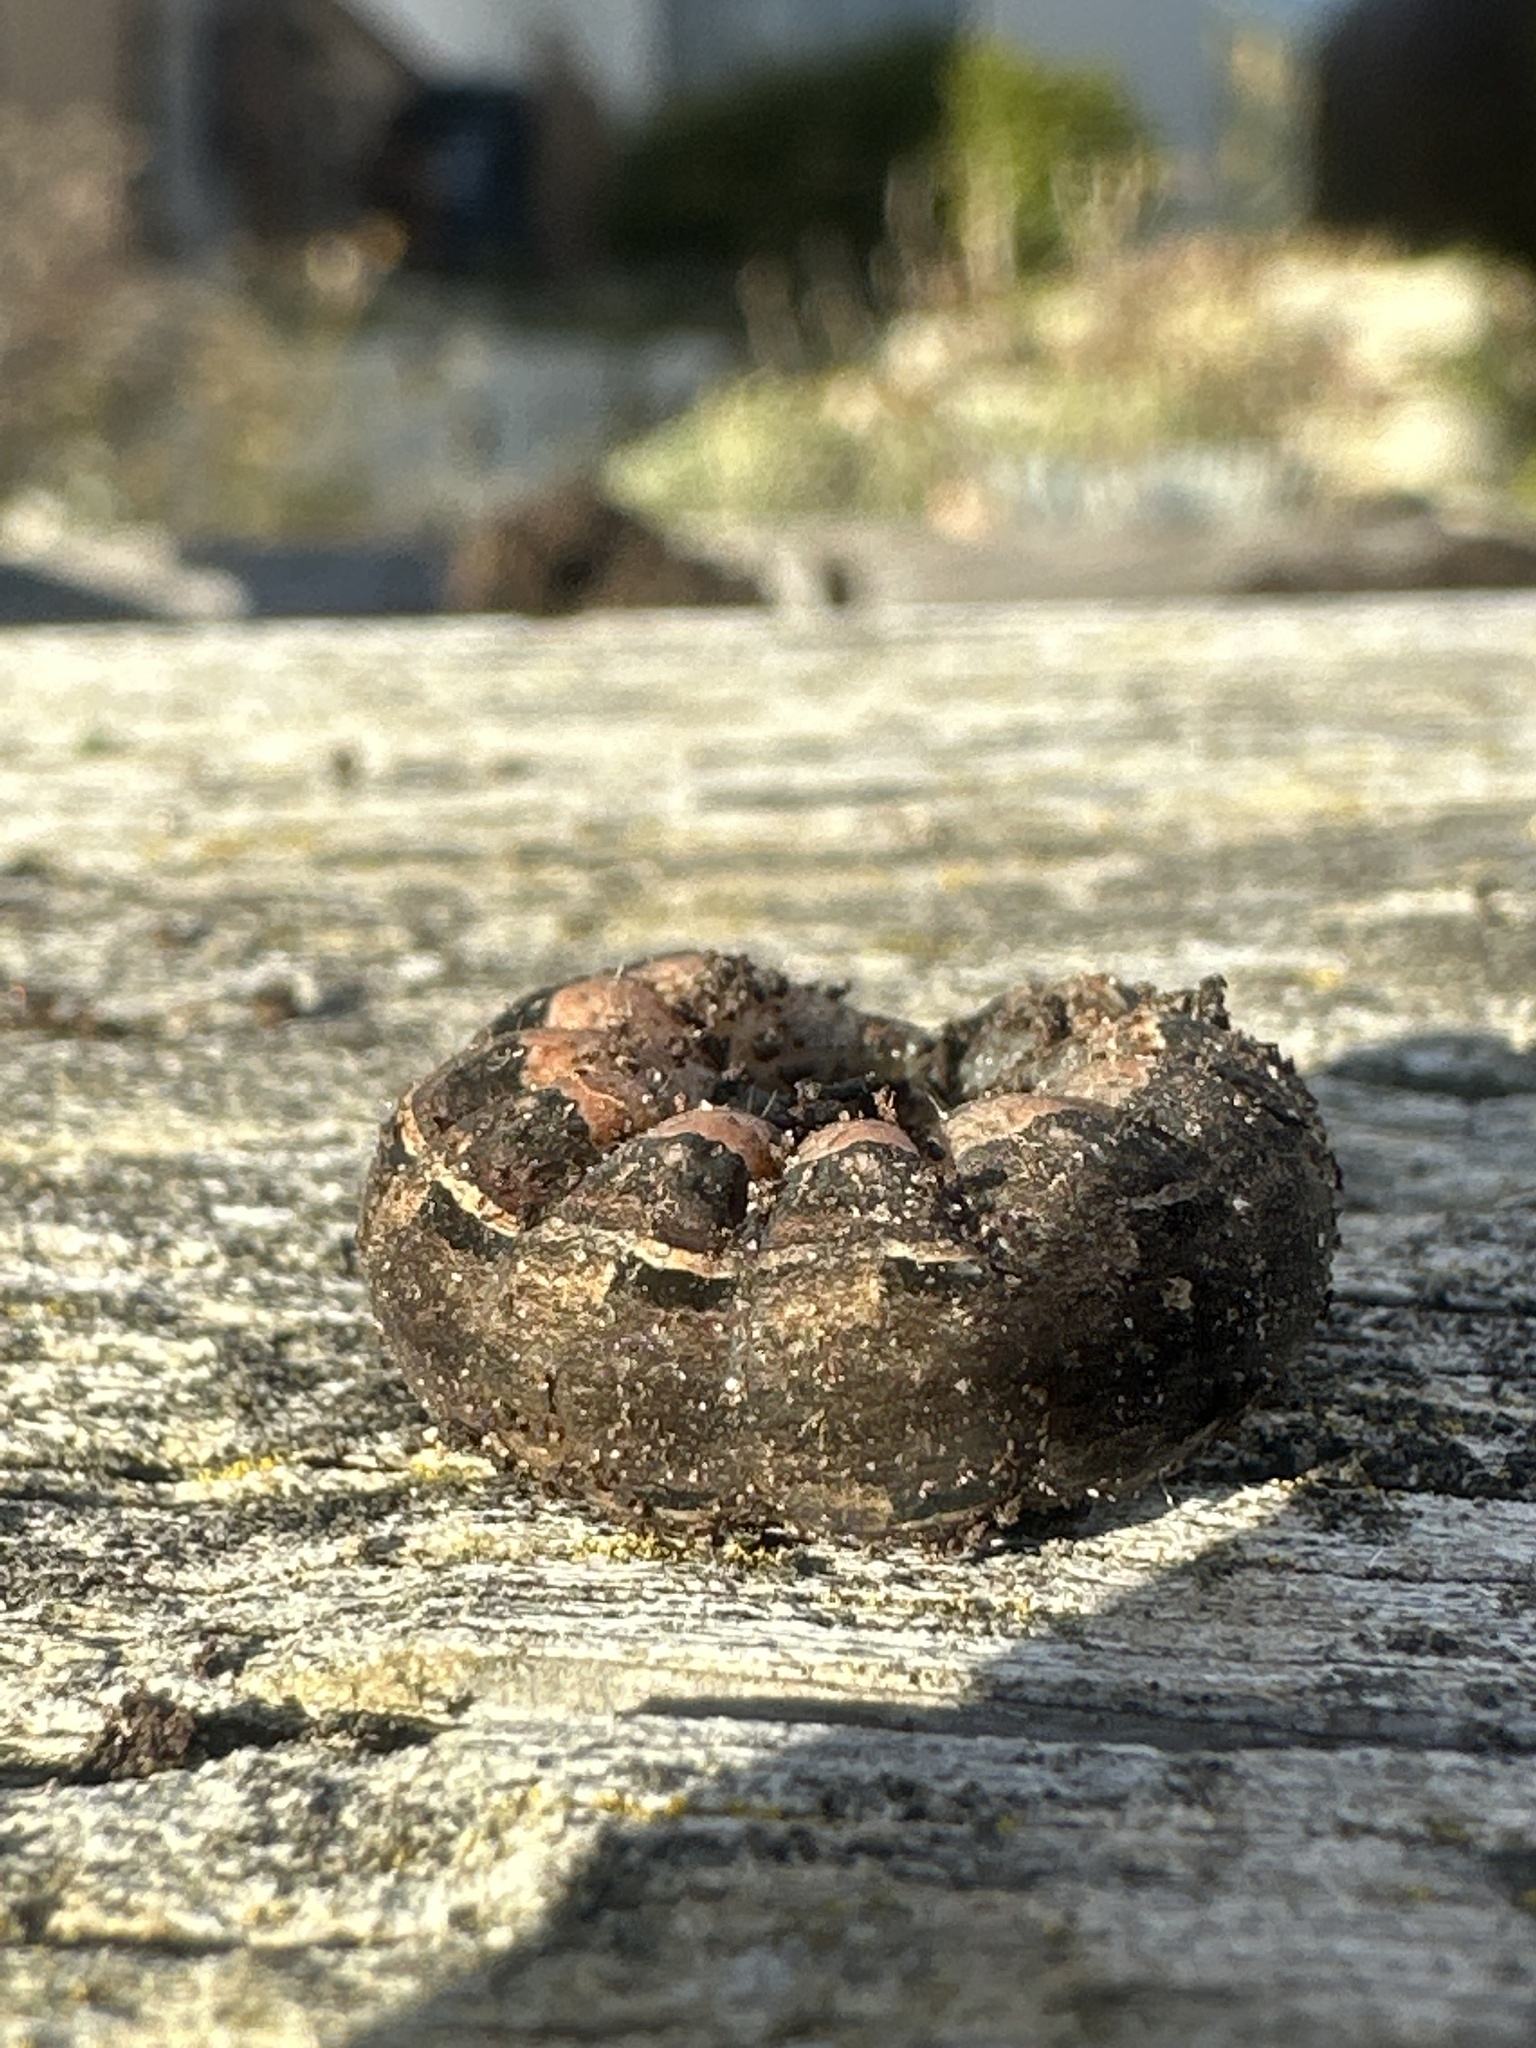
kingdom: Animalia
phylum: Arthropoda
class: Insecta
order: Lepidoptera
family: Noctuidae
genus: Noctua
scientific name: Noctua pronuba
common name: Large yellow underwing
